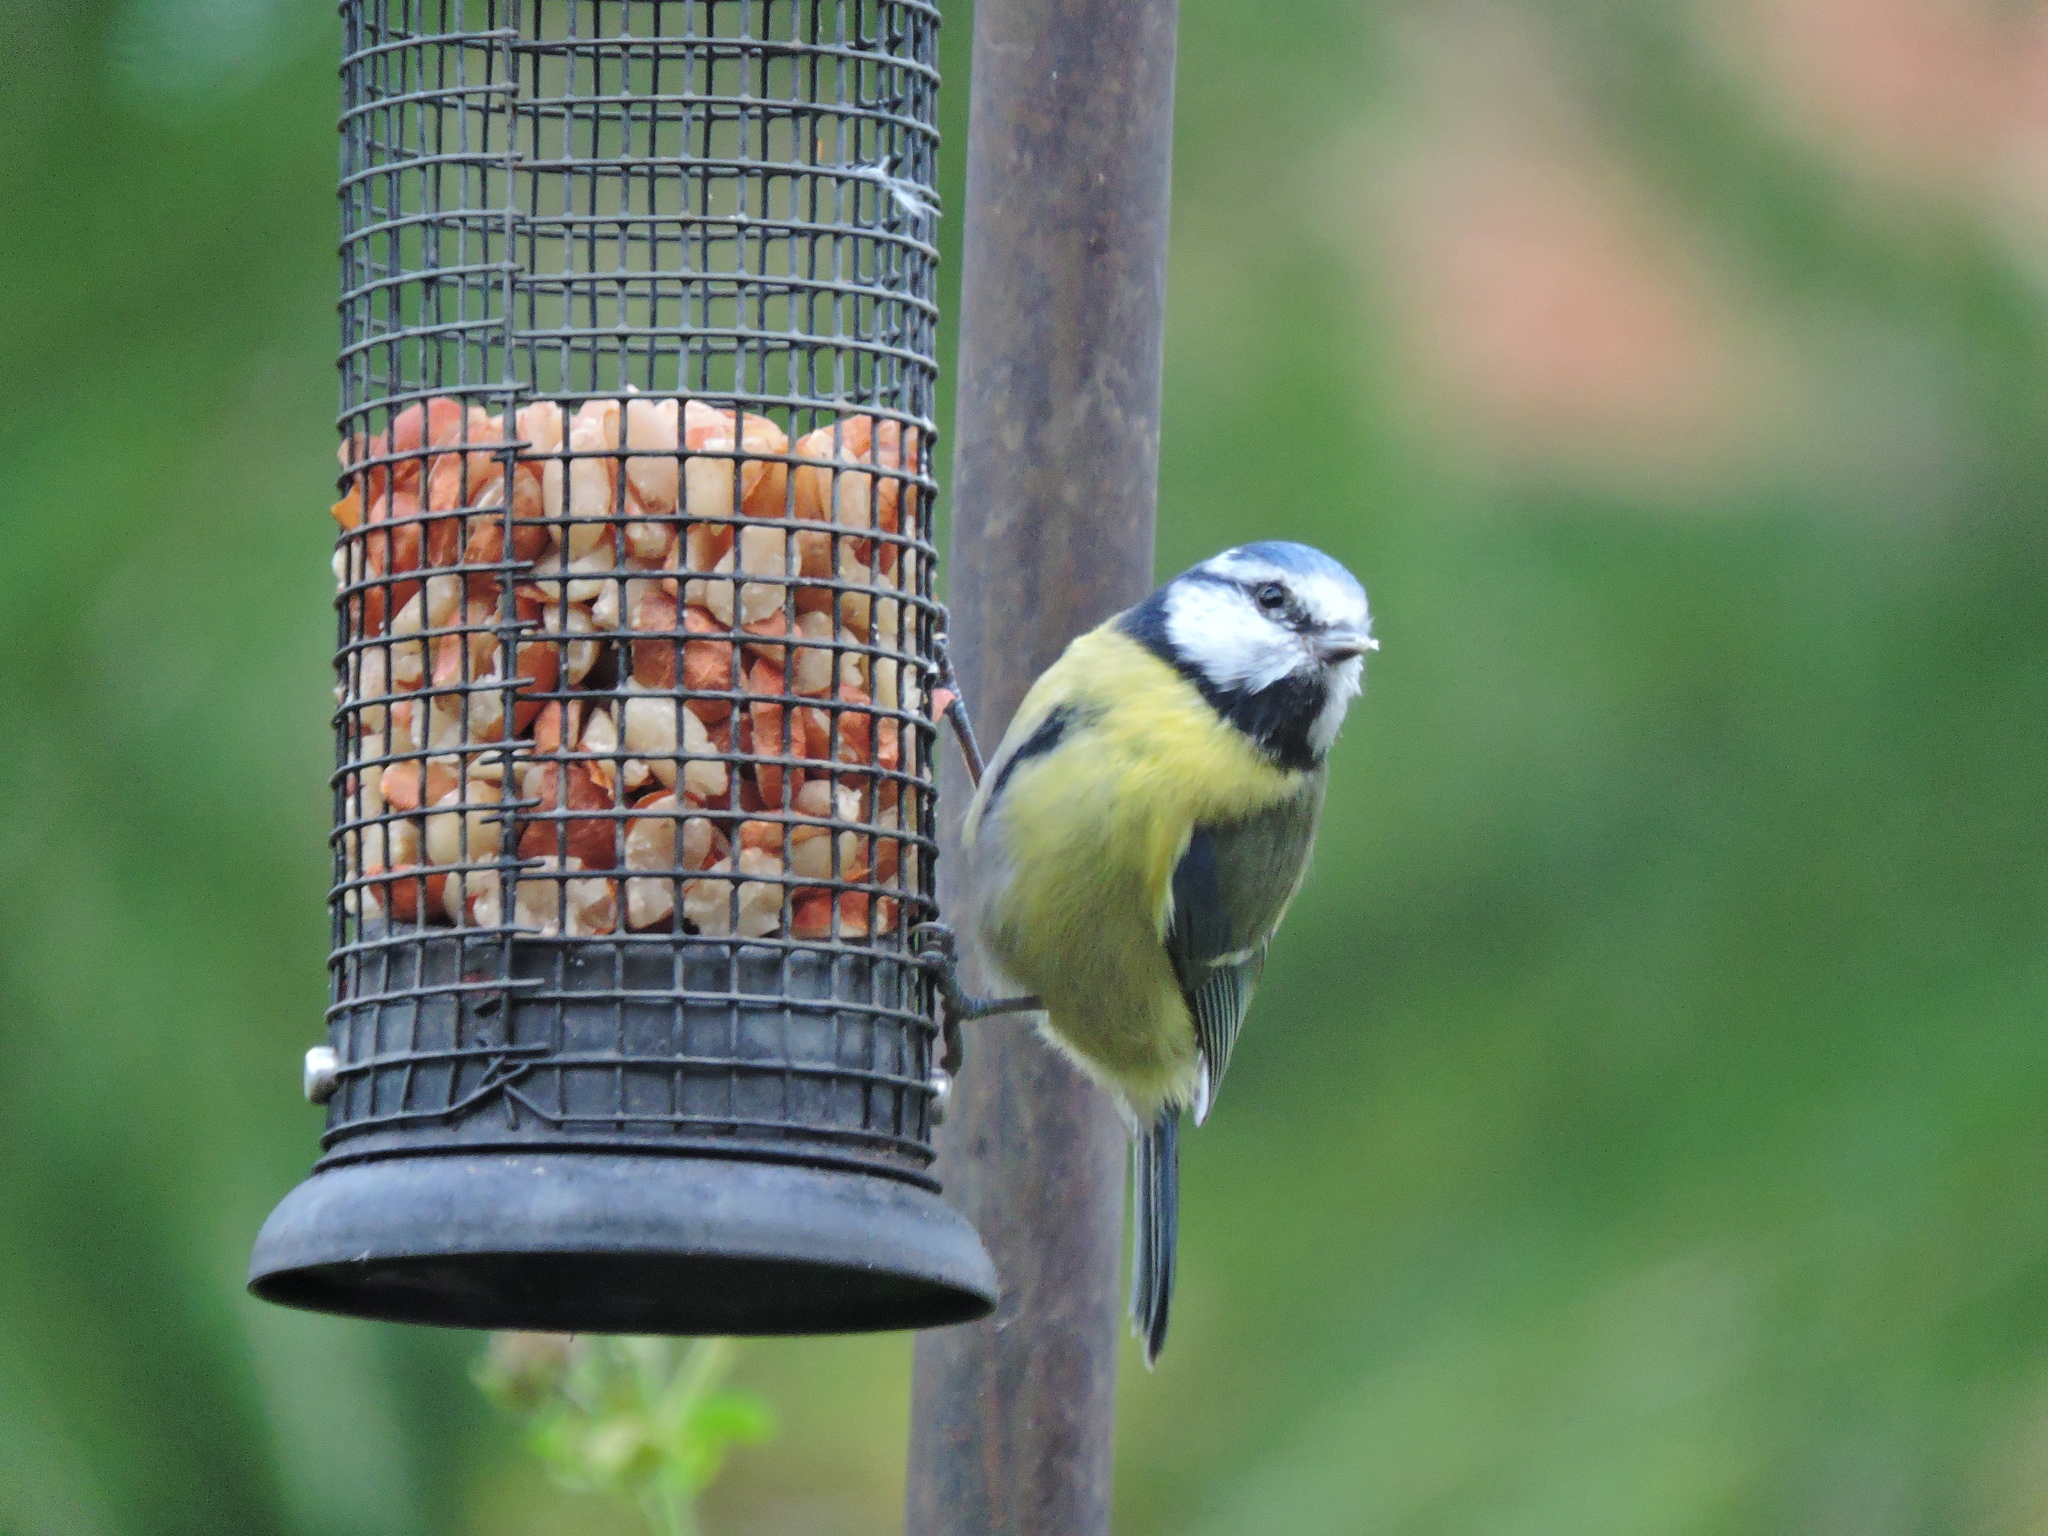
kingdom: Animalia
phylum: Chordata
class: Aves
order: Passeriformes
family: Paridae
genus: Cyanistes
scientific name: Cyanistes caeruleus
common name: Eurasian blue tit
